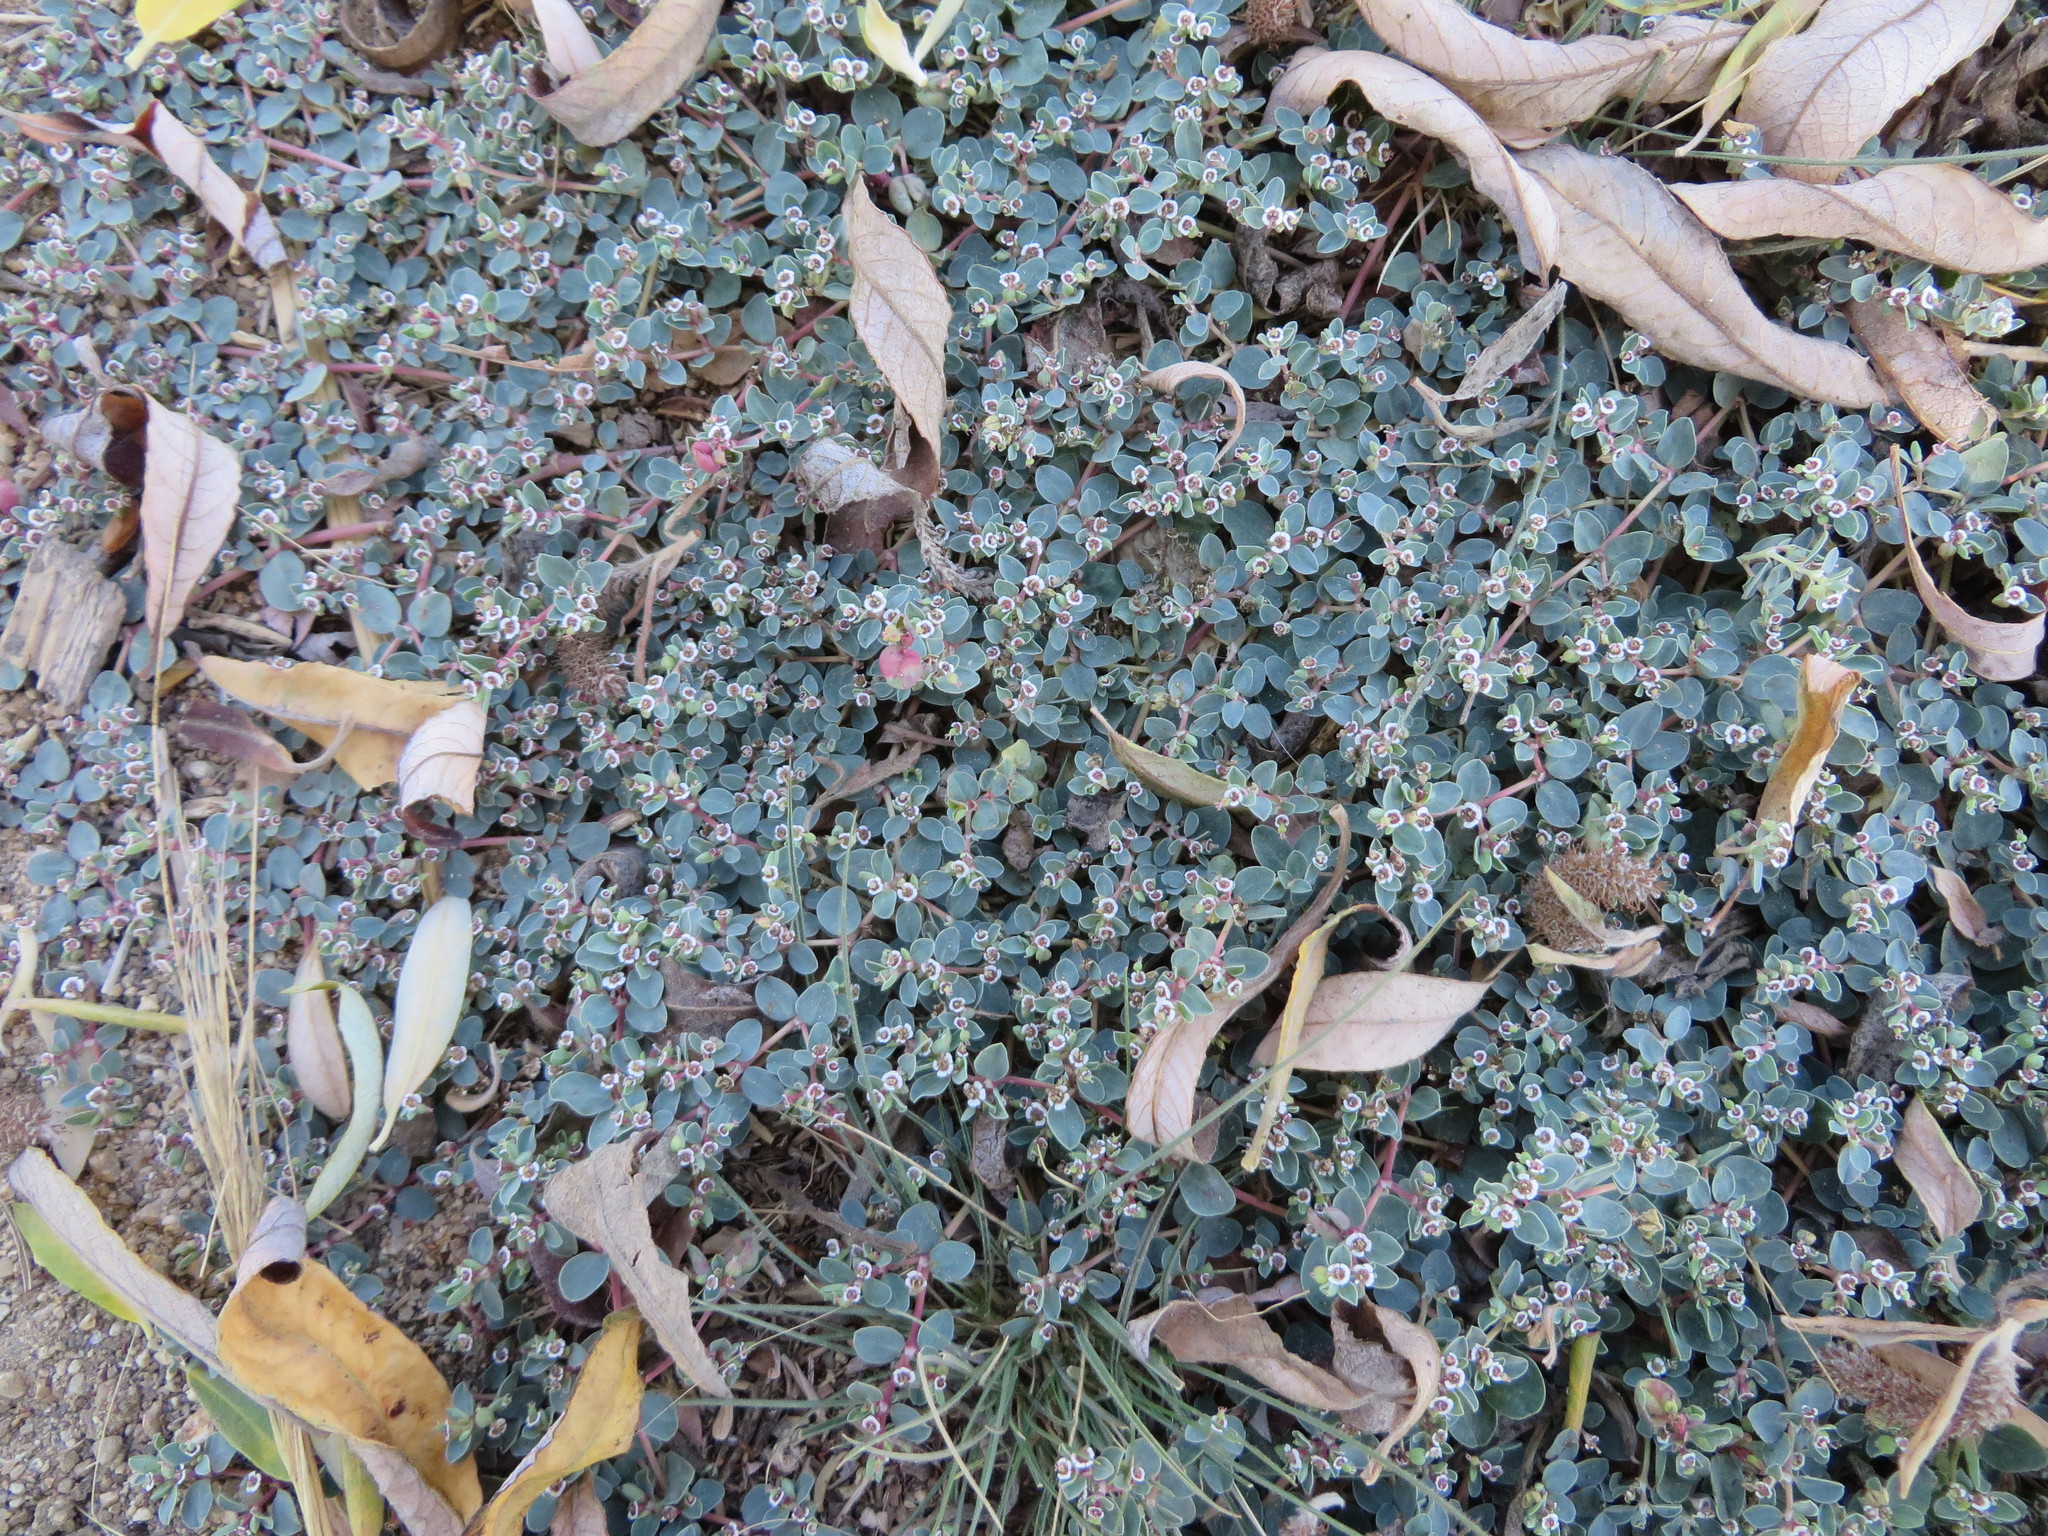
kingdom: Plantae
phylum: Tracheophyta
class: Magnoliopsida
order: Malpighiales
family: Euphorbiaceae
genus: Euphorbia
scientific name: Euphorbia albomarginata
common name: Whitemargin sandmat
